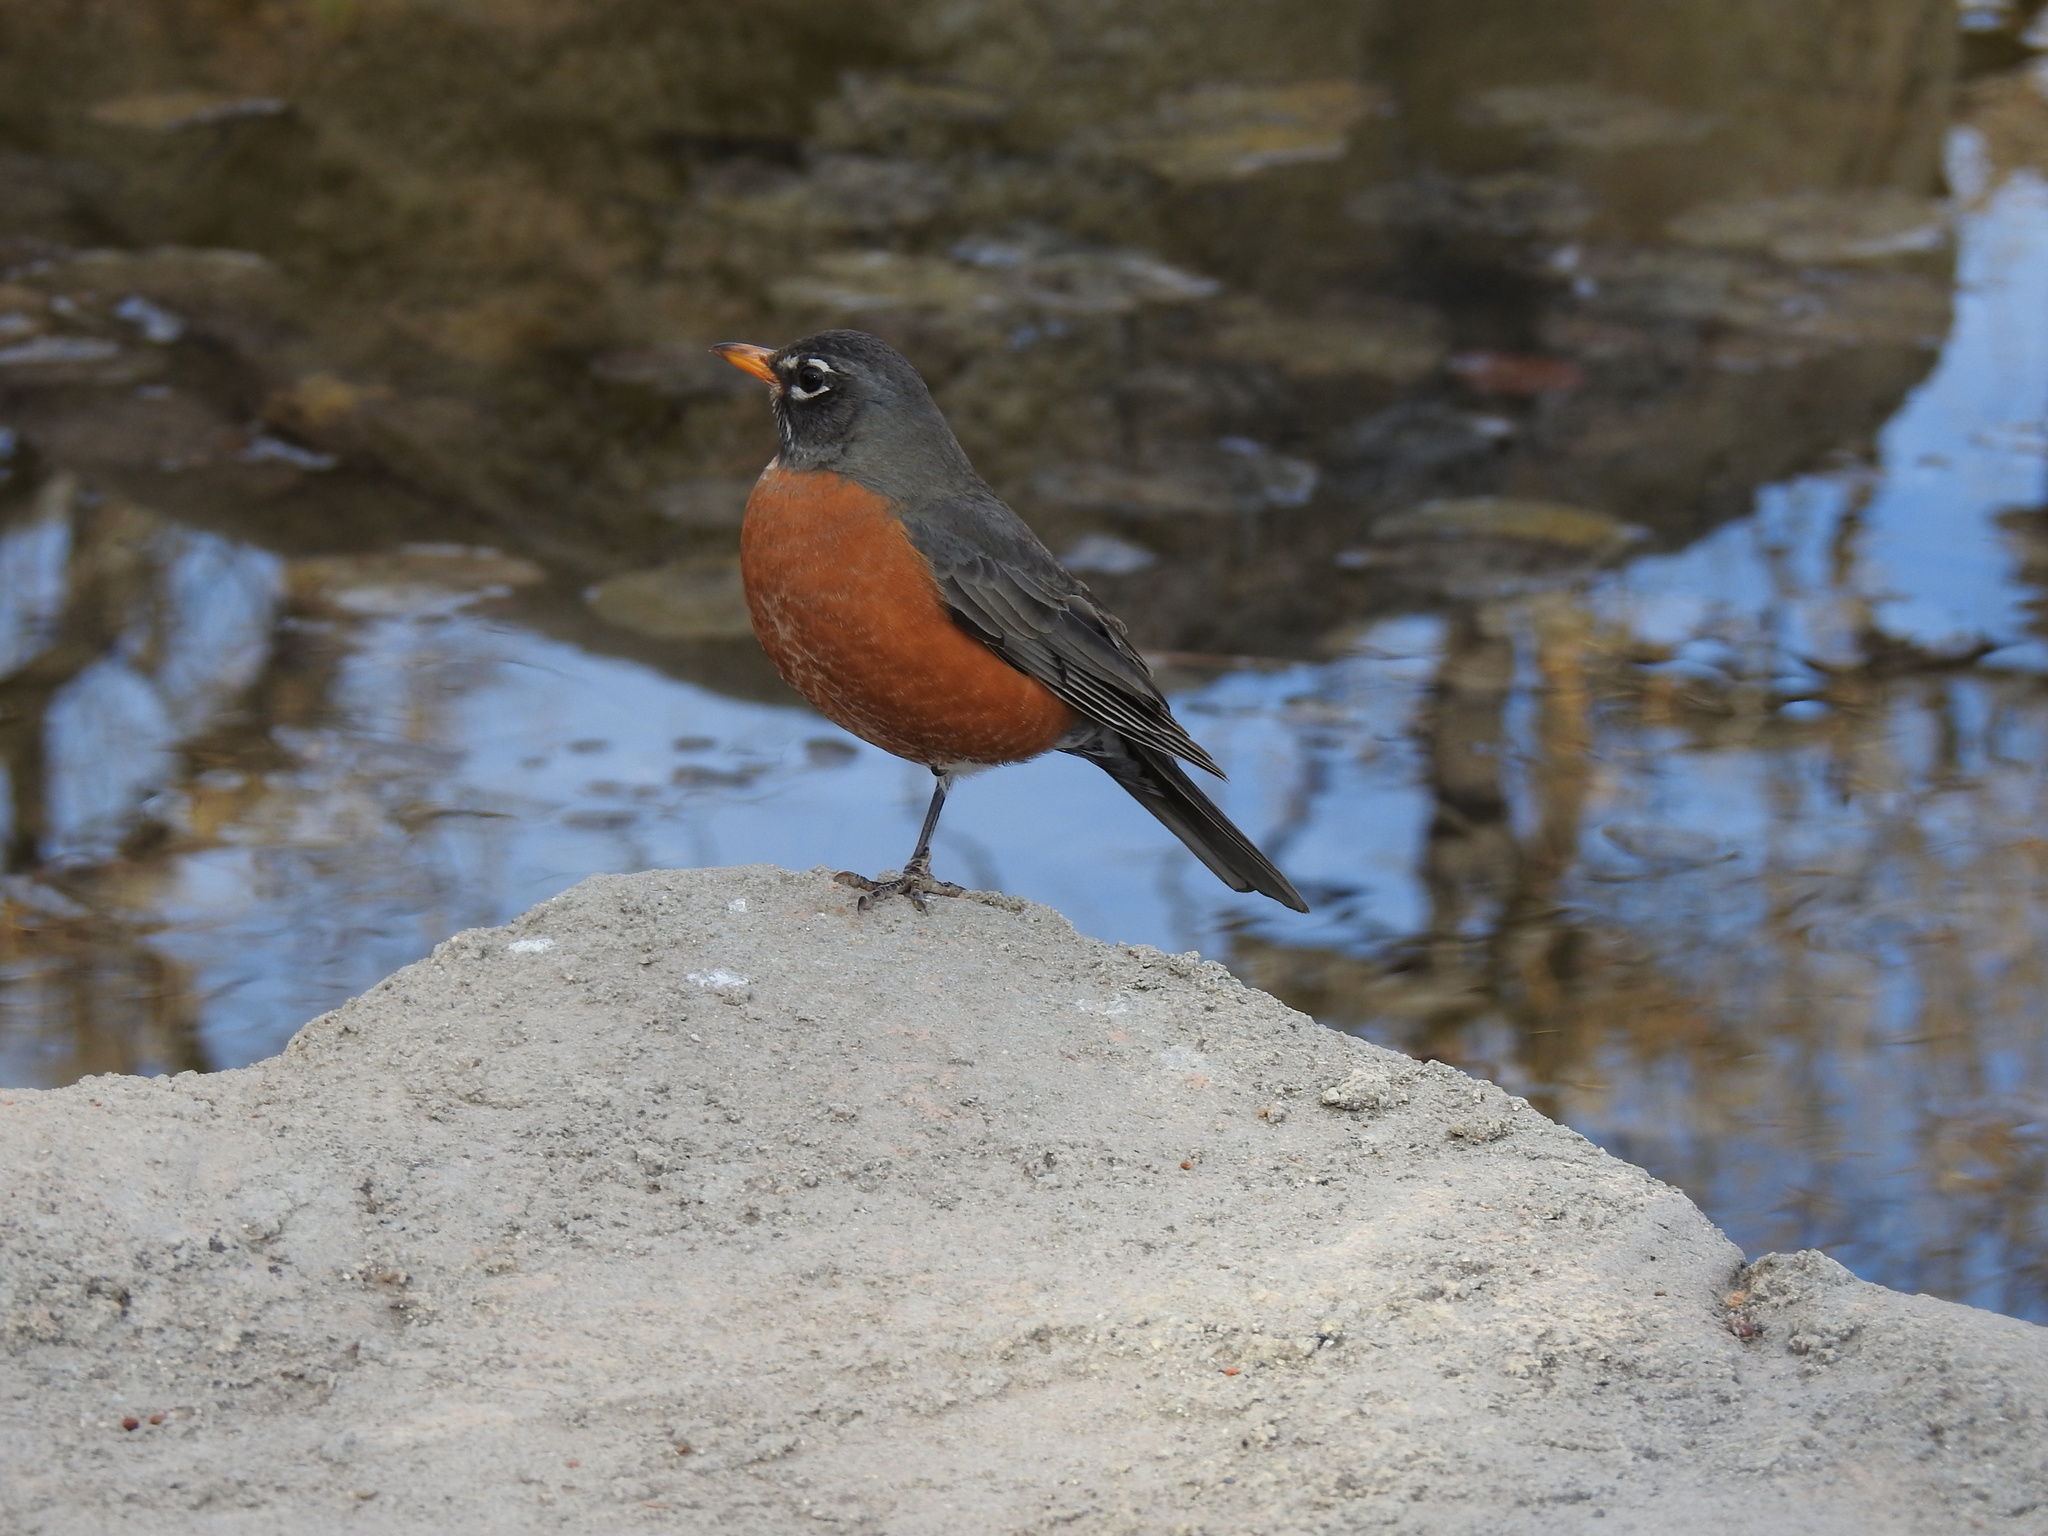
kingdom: Animalia
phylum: Chordata
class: Aves
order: Passeriformes
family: Turdidae
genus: Turdus
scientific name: Turdus migratorius
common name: American robin
